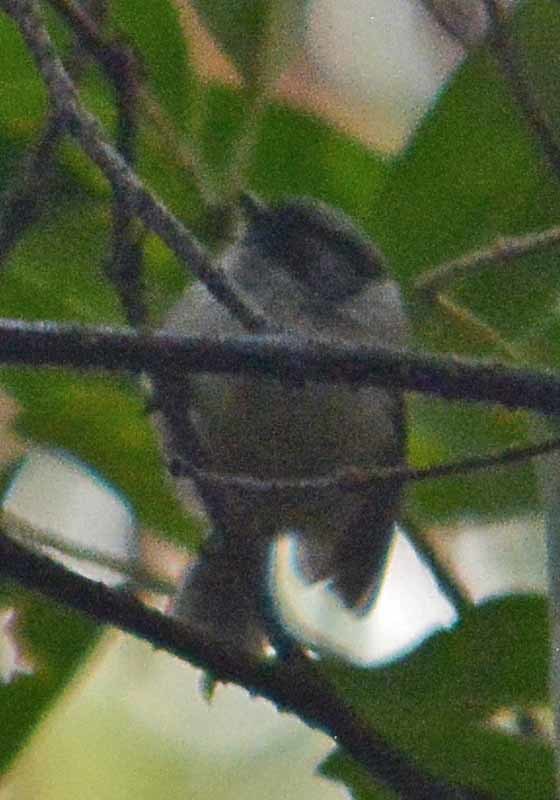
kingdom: Animalia
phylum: Chordata
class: Aves
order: Passeriformes
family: Aegithalidae
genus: Psaltriparus
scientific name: Psaltriparus minimus
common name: American bushtit
